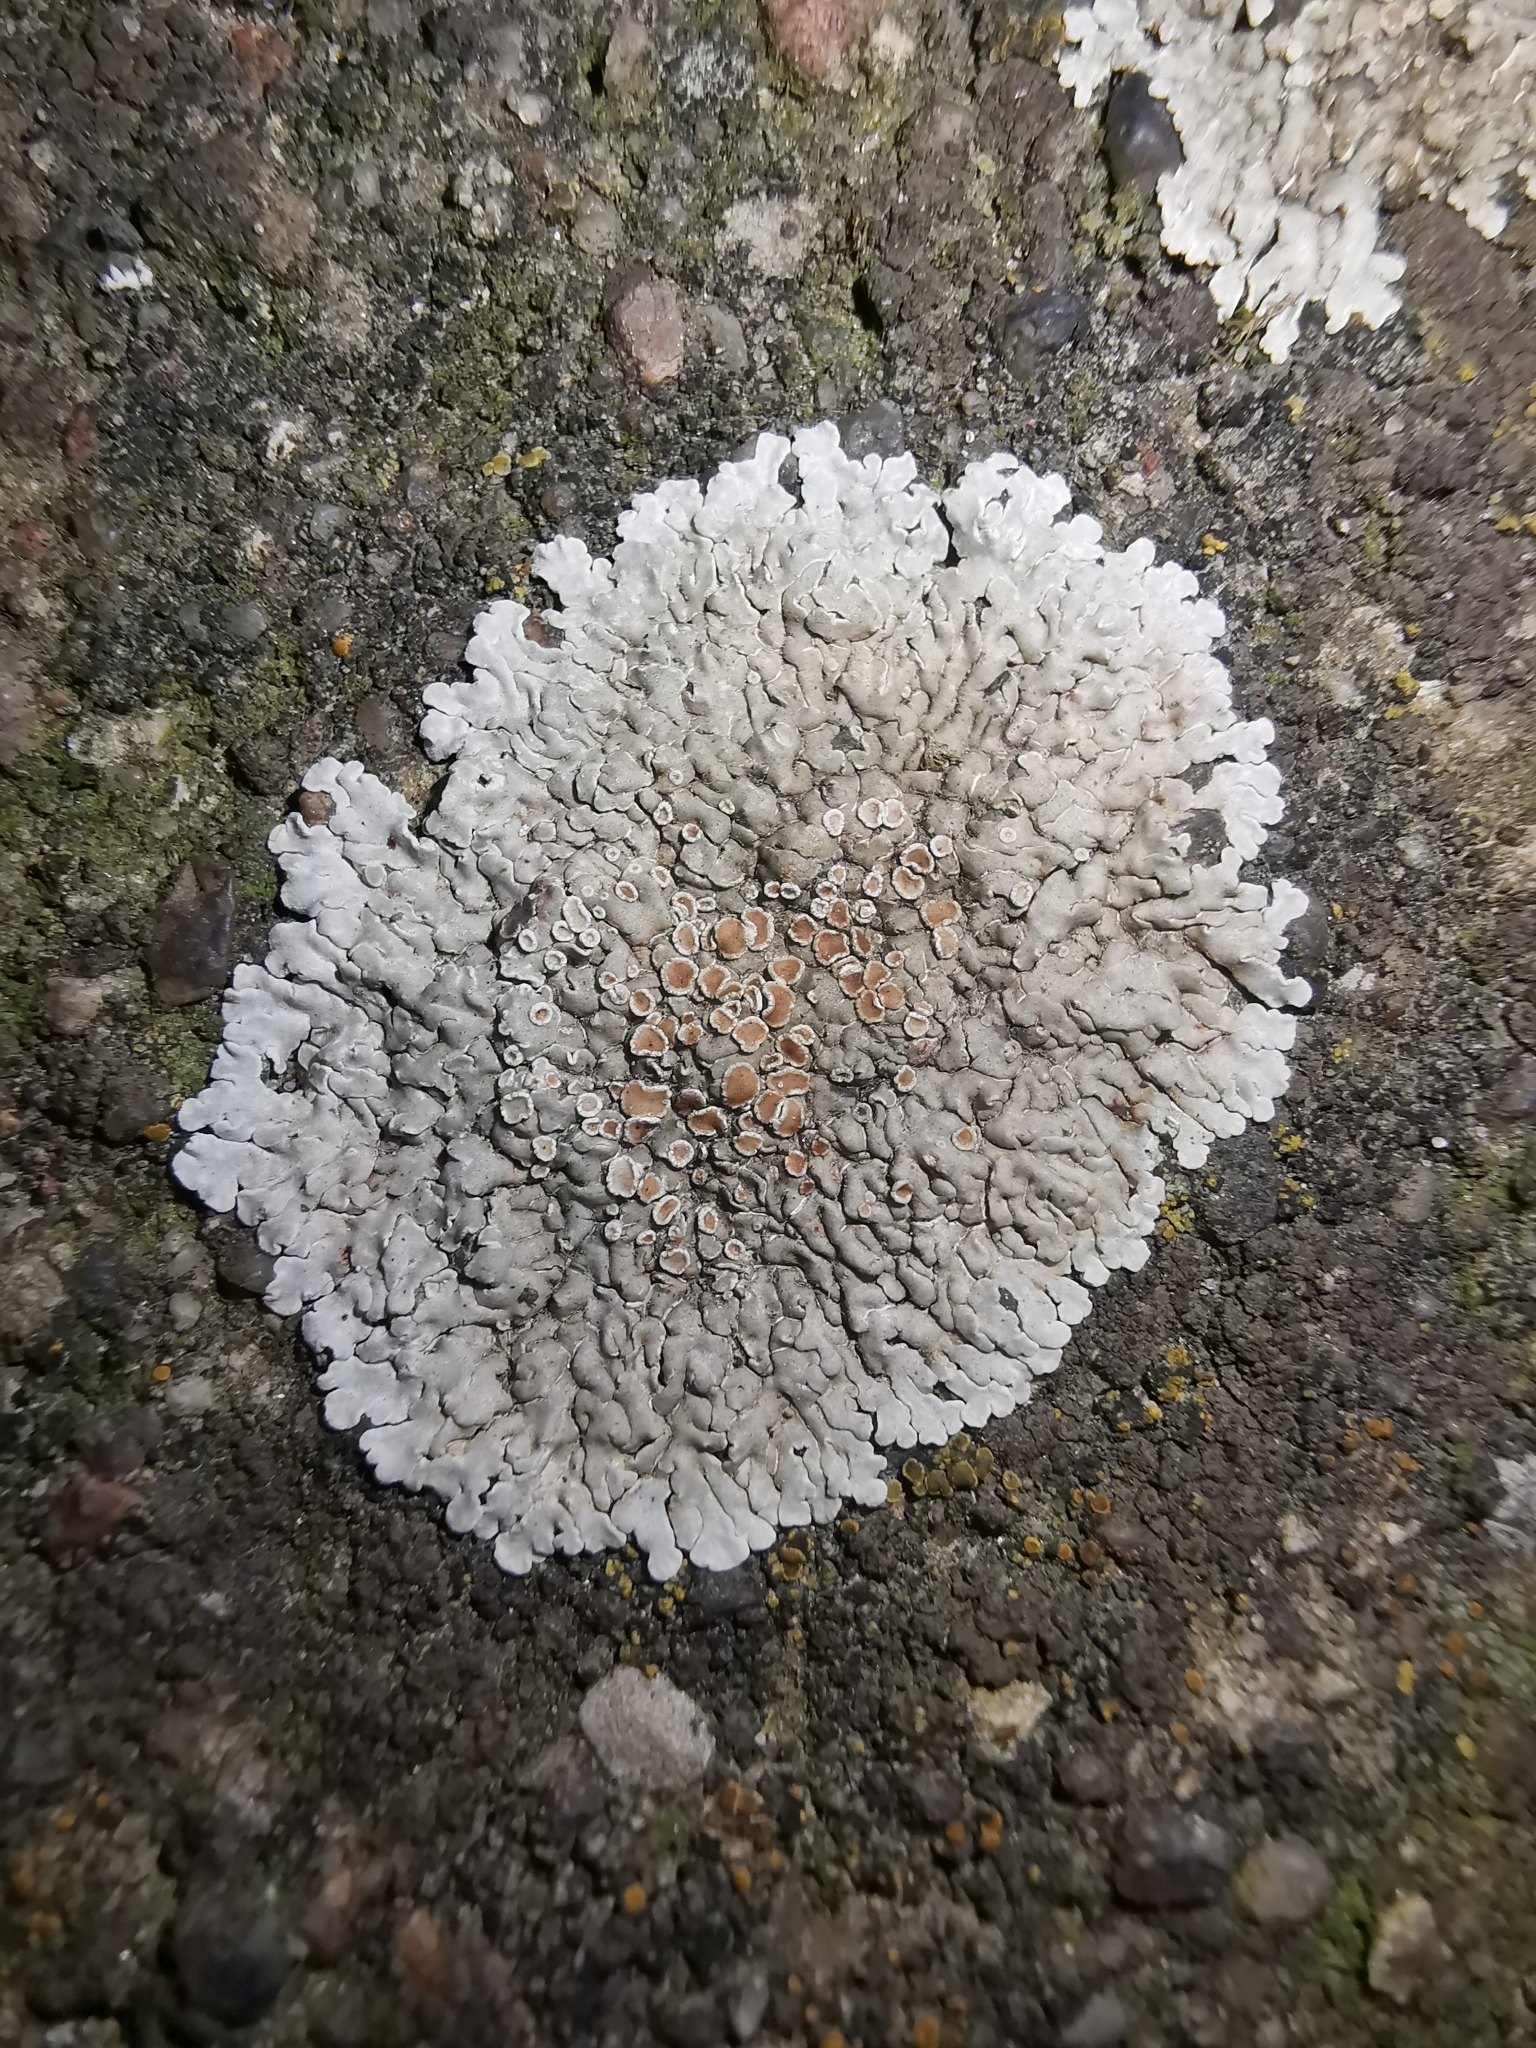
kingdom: Fungi
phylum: Ascomycota
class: Lecanoromycetes
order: Lecanorales
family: Lecanoraceae
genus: Protoparmeliopsis
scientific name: Protoparmeliopsis muralis
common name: Stonewall rim lichen
